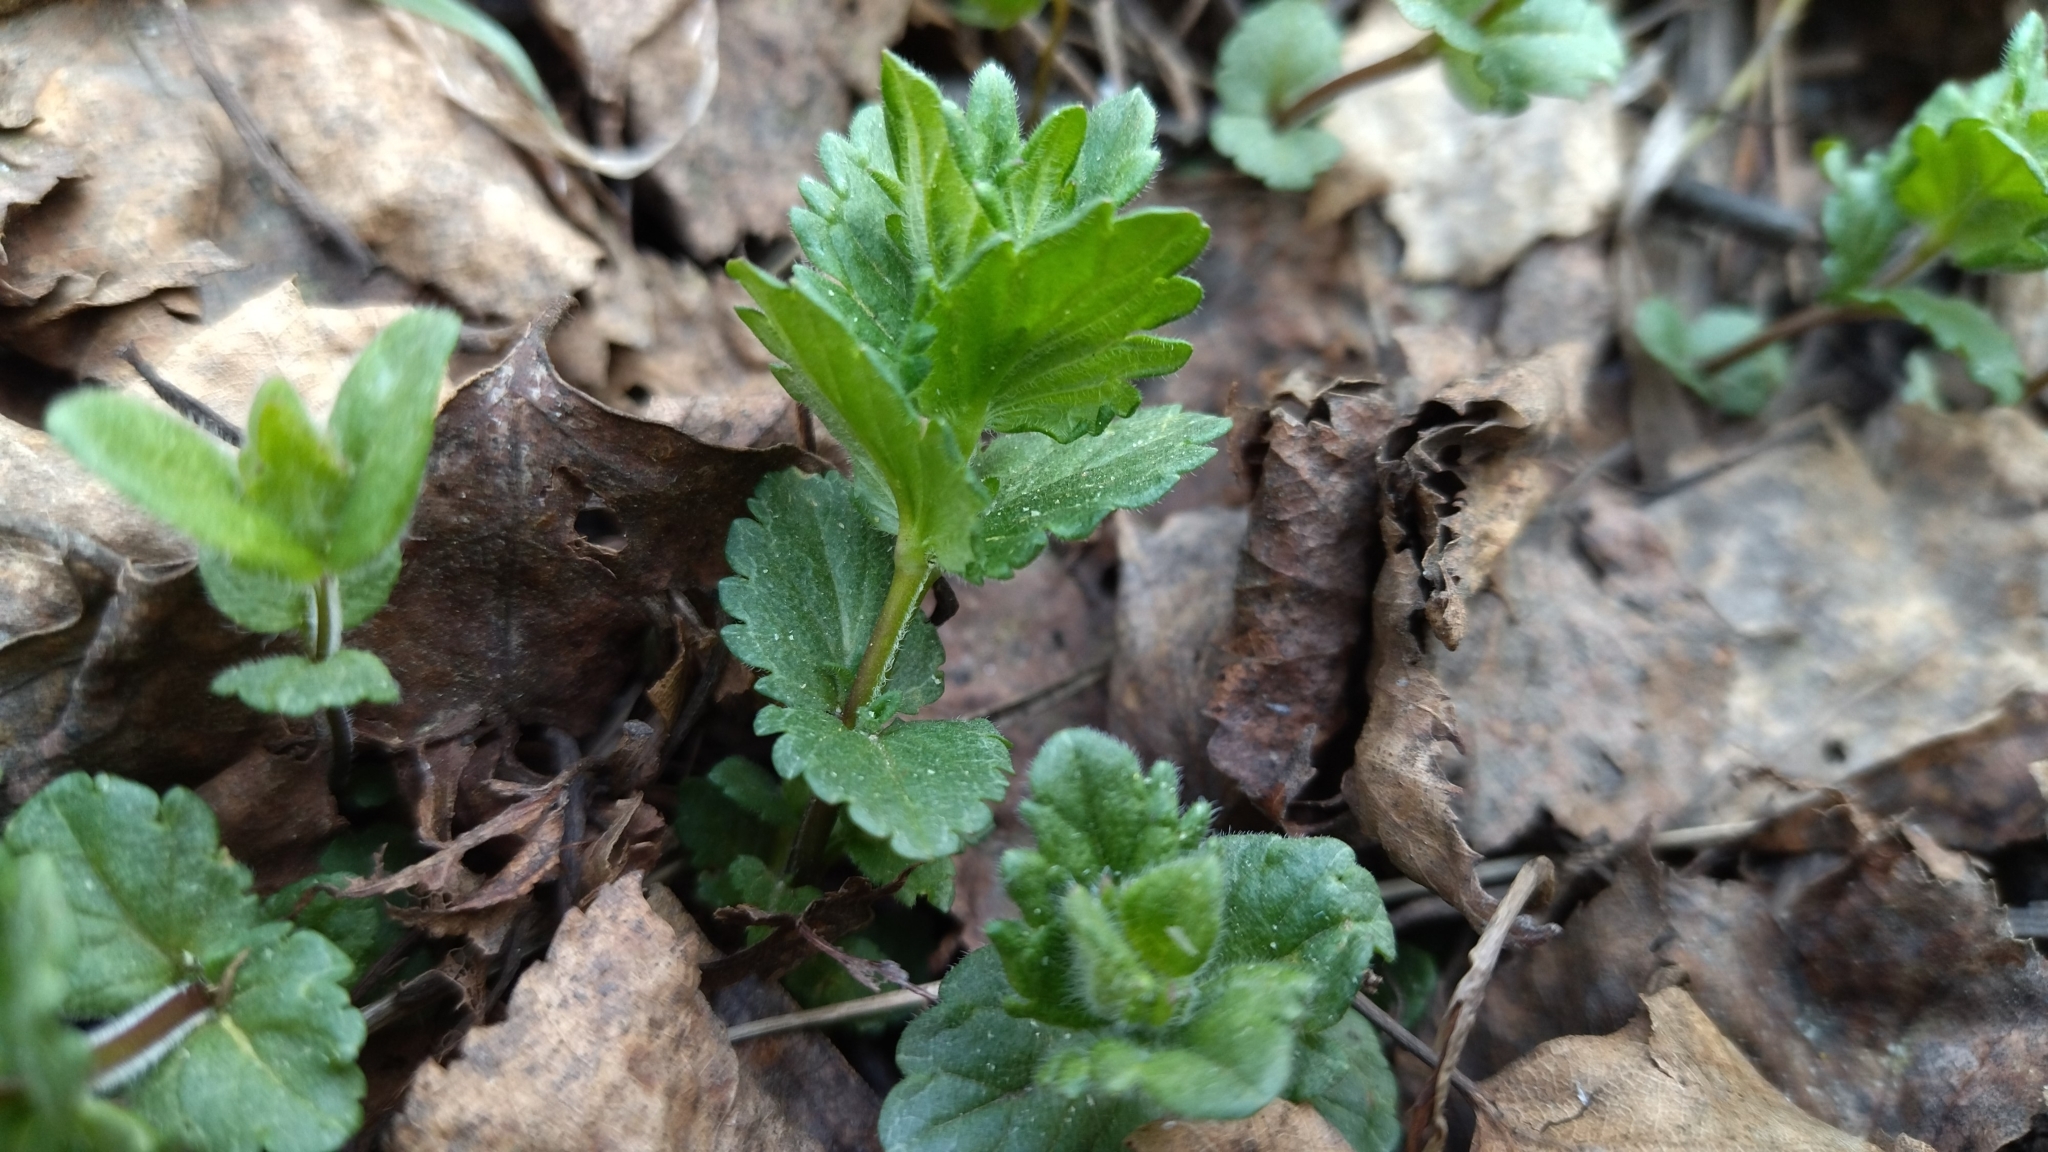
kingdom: Plantae
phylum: Tracheophyta
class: Magnoliopsida
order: Lamiales
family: Plantaginaceae
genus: Veronica
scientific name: Veronica chamaedrys
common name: Germander speedwell
